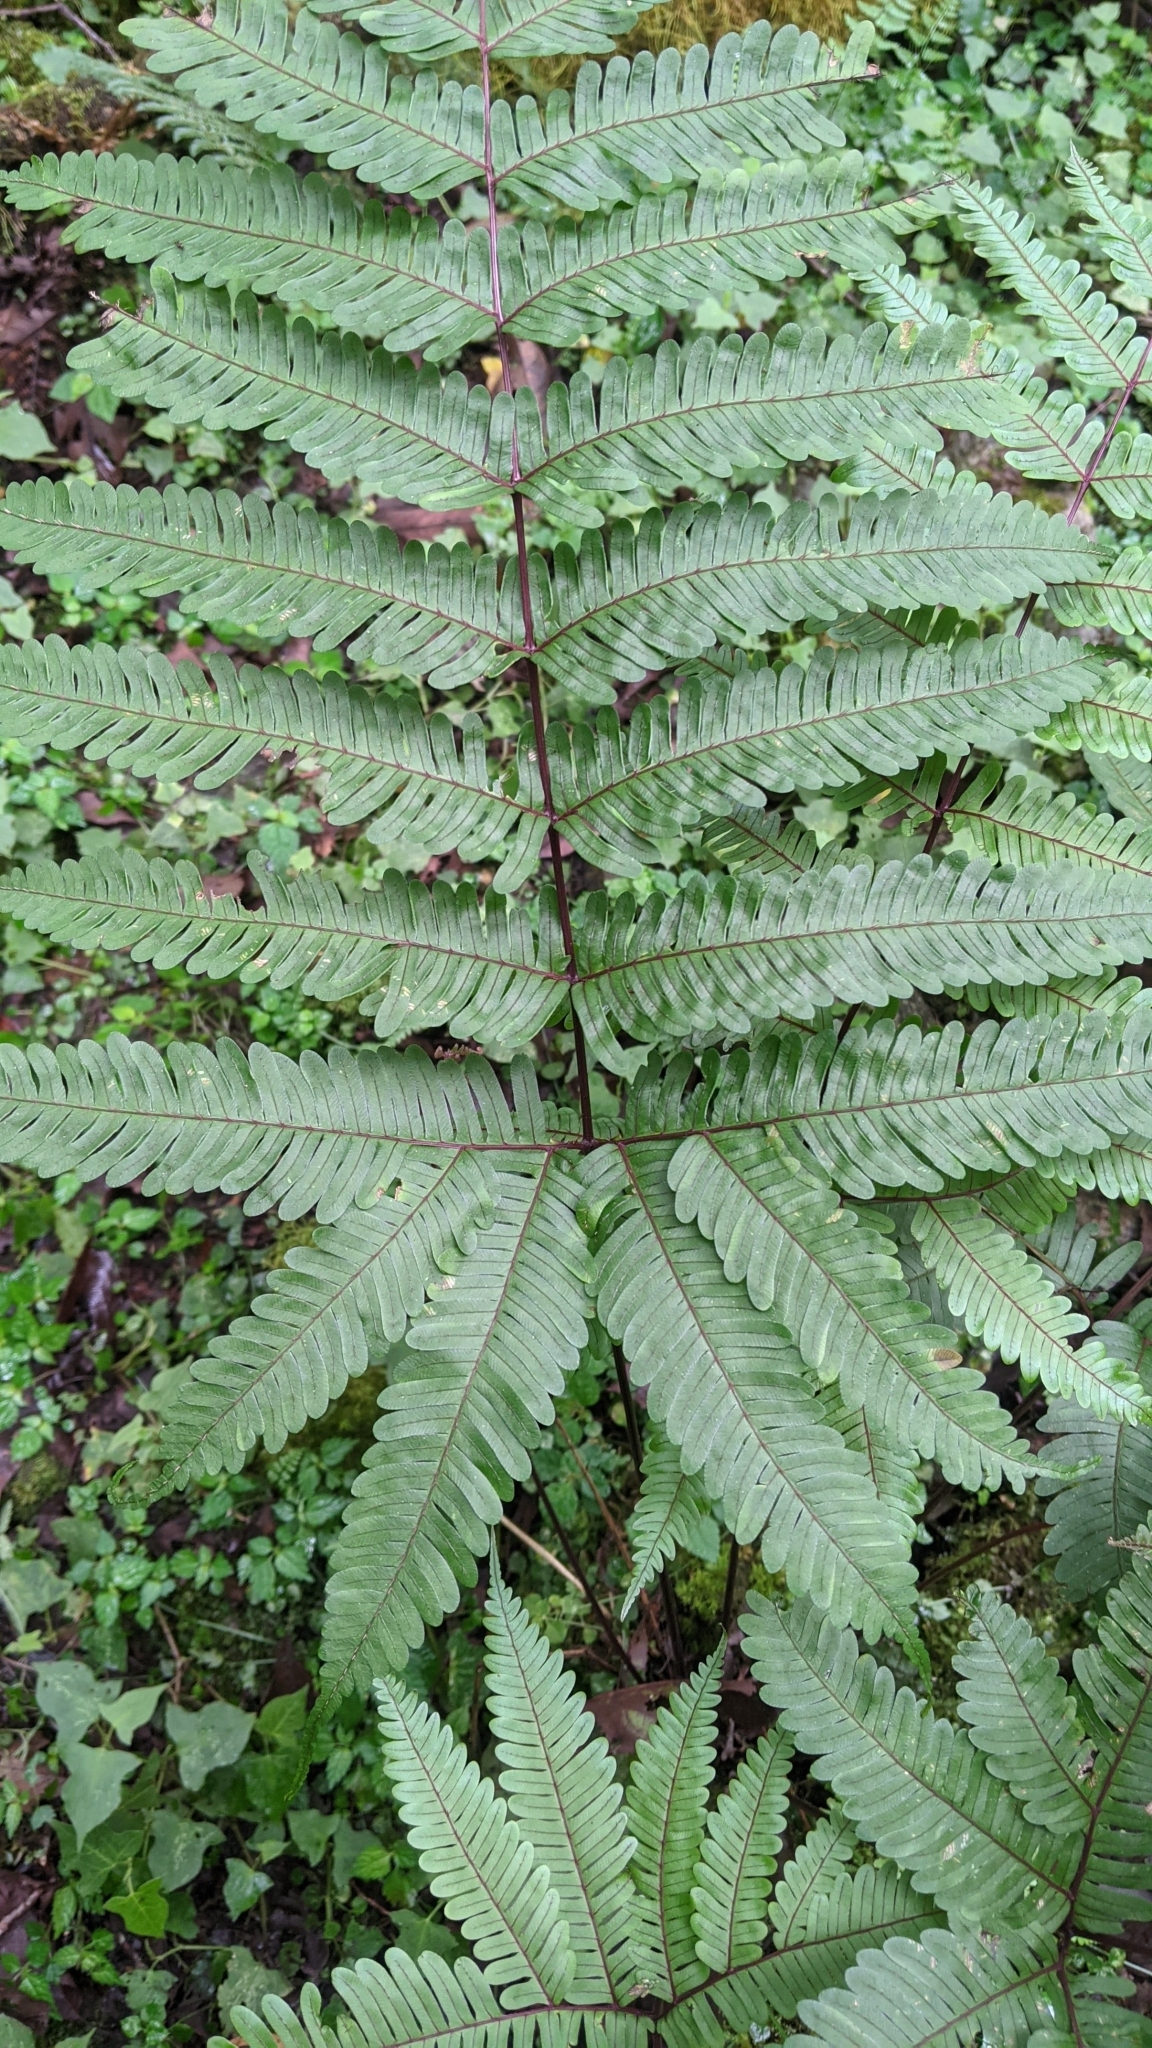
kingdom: Plantae
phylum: Tracheophyta
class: Polypodiopsida
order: Polypodiales
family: Pteridaceae
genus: Pteris
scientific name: Pteris setulosocostulata
